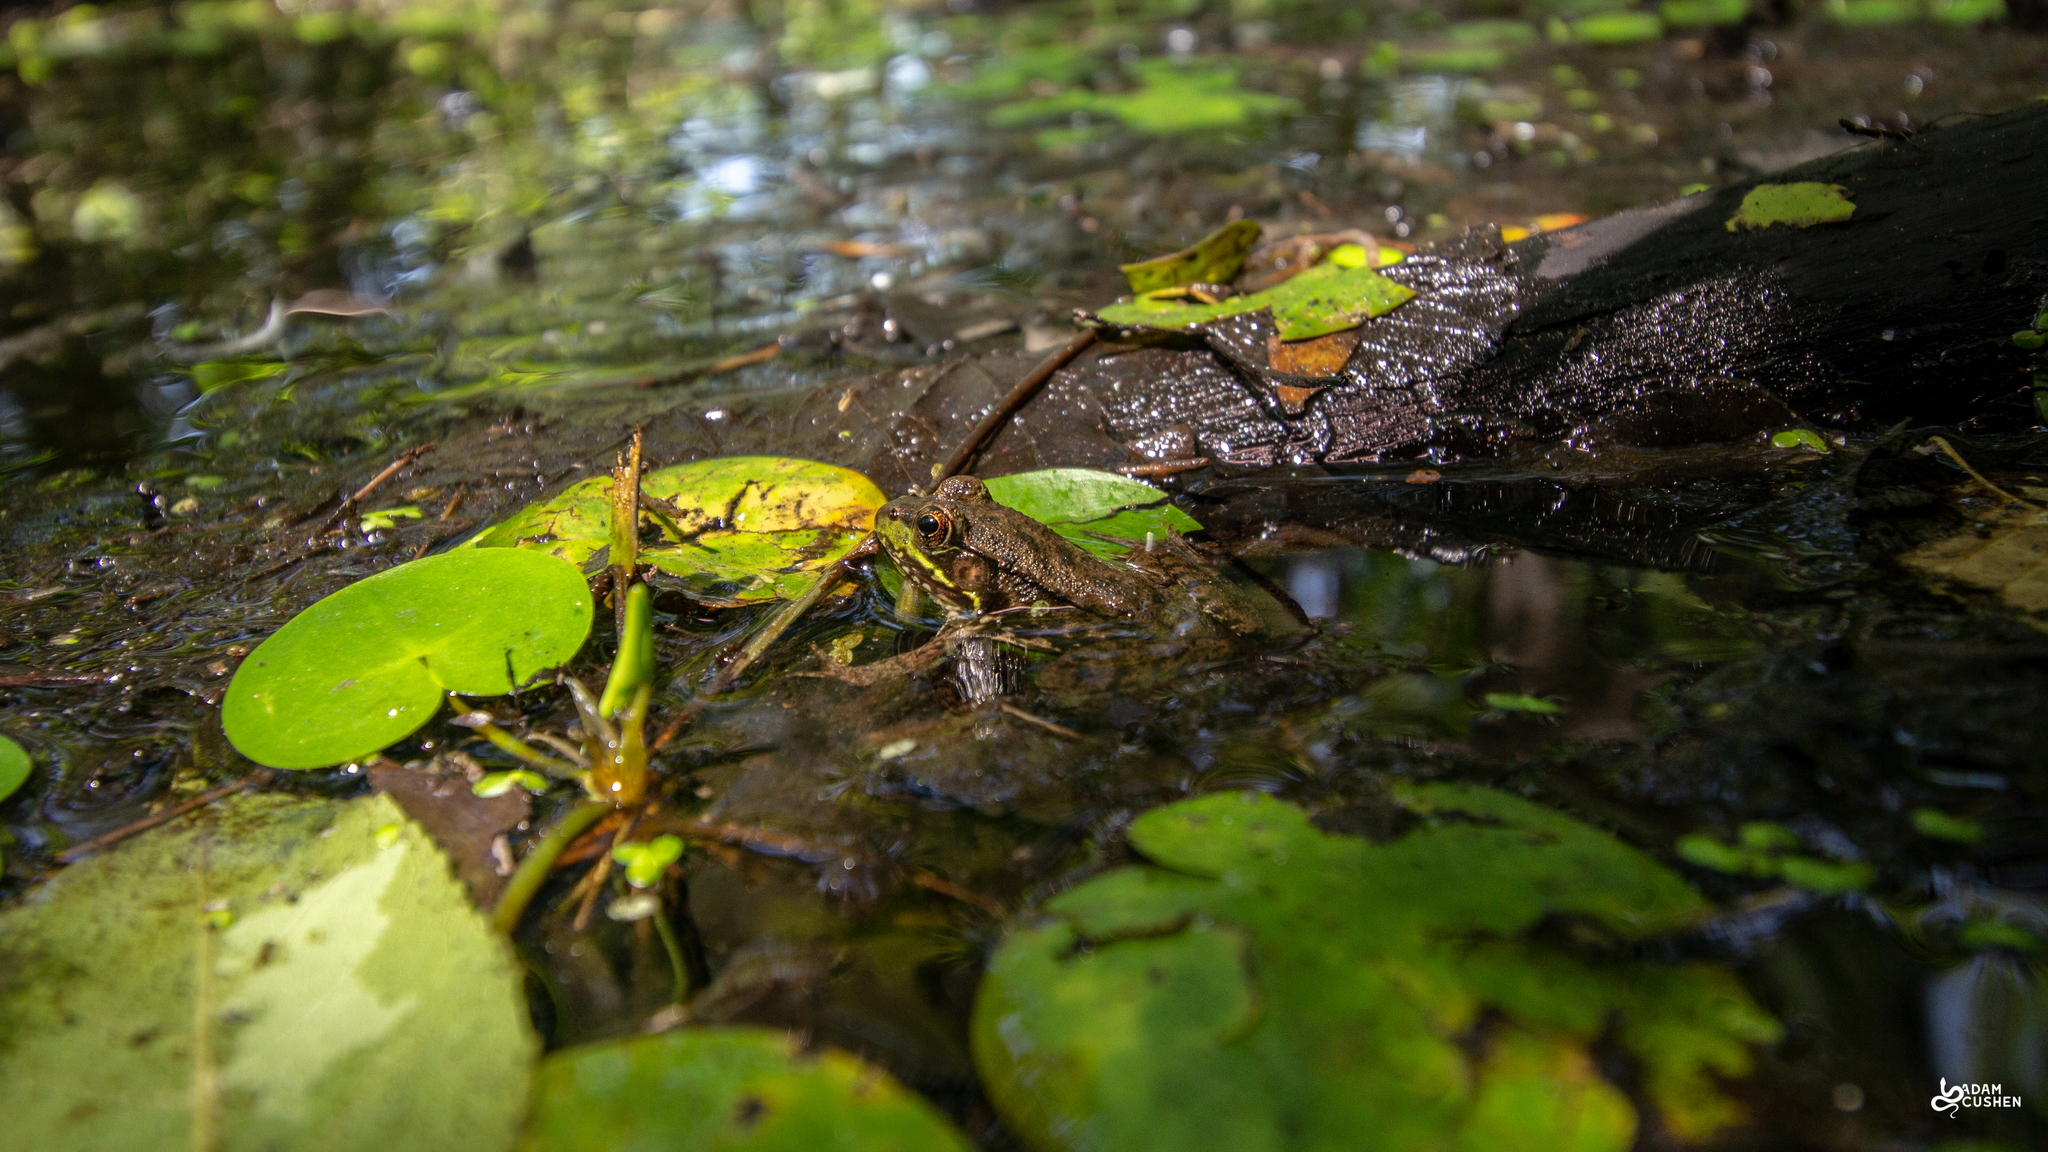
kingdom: Animalia
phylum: Chordata
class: Amphibia
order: Anura
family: Ranidae
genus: Lithobates
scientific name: Lithobates clamitans
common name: Green frog
